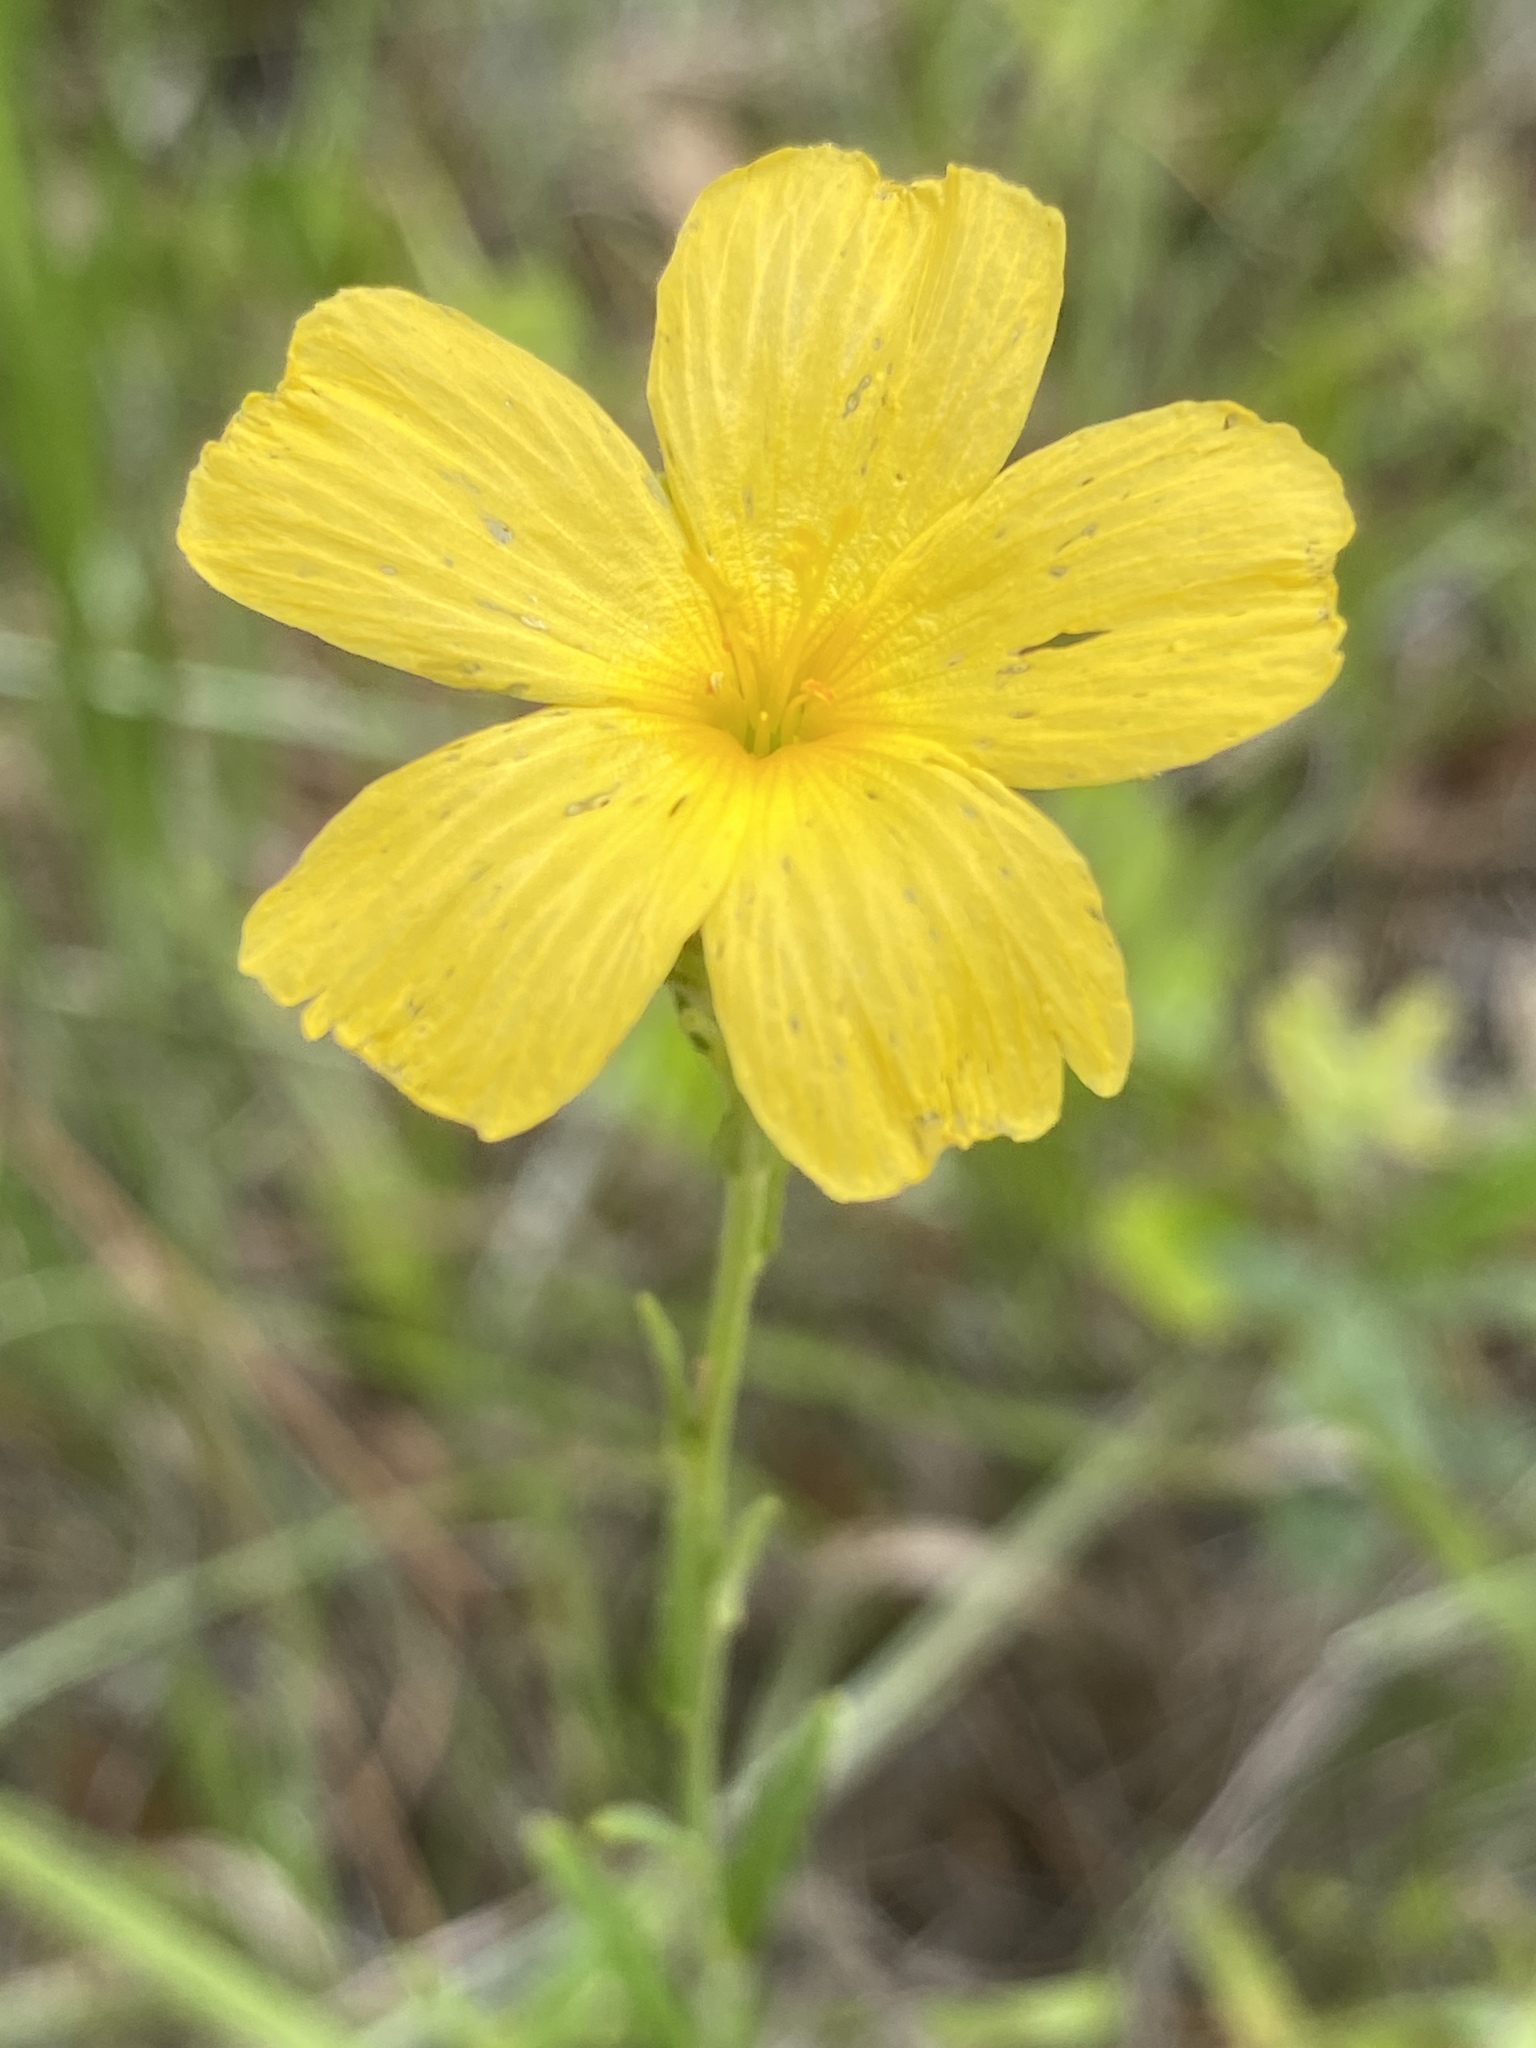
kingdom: Plantae
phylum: Tracheophyta
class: Magnoliopsida
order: Malpighiales
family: Turneraceae
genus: Piriqueta
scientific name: Piriqueta cistoides
